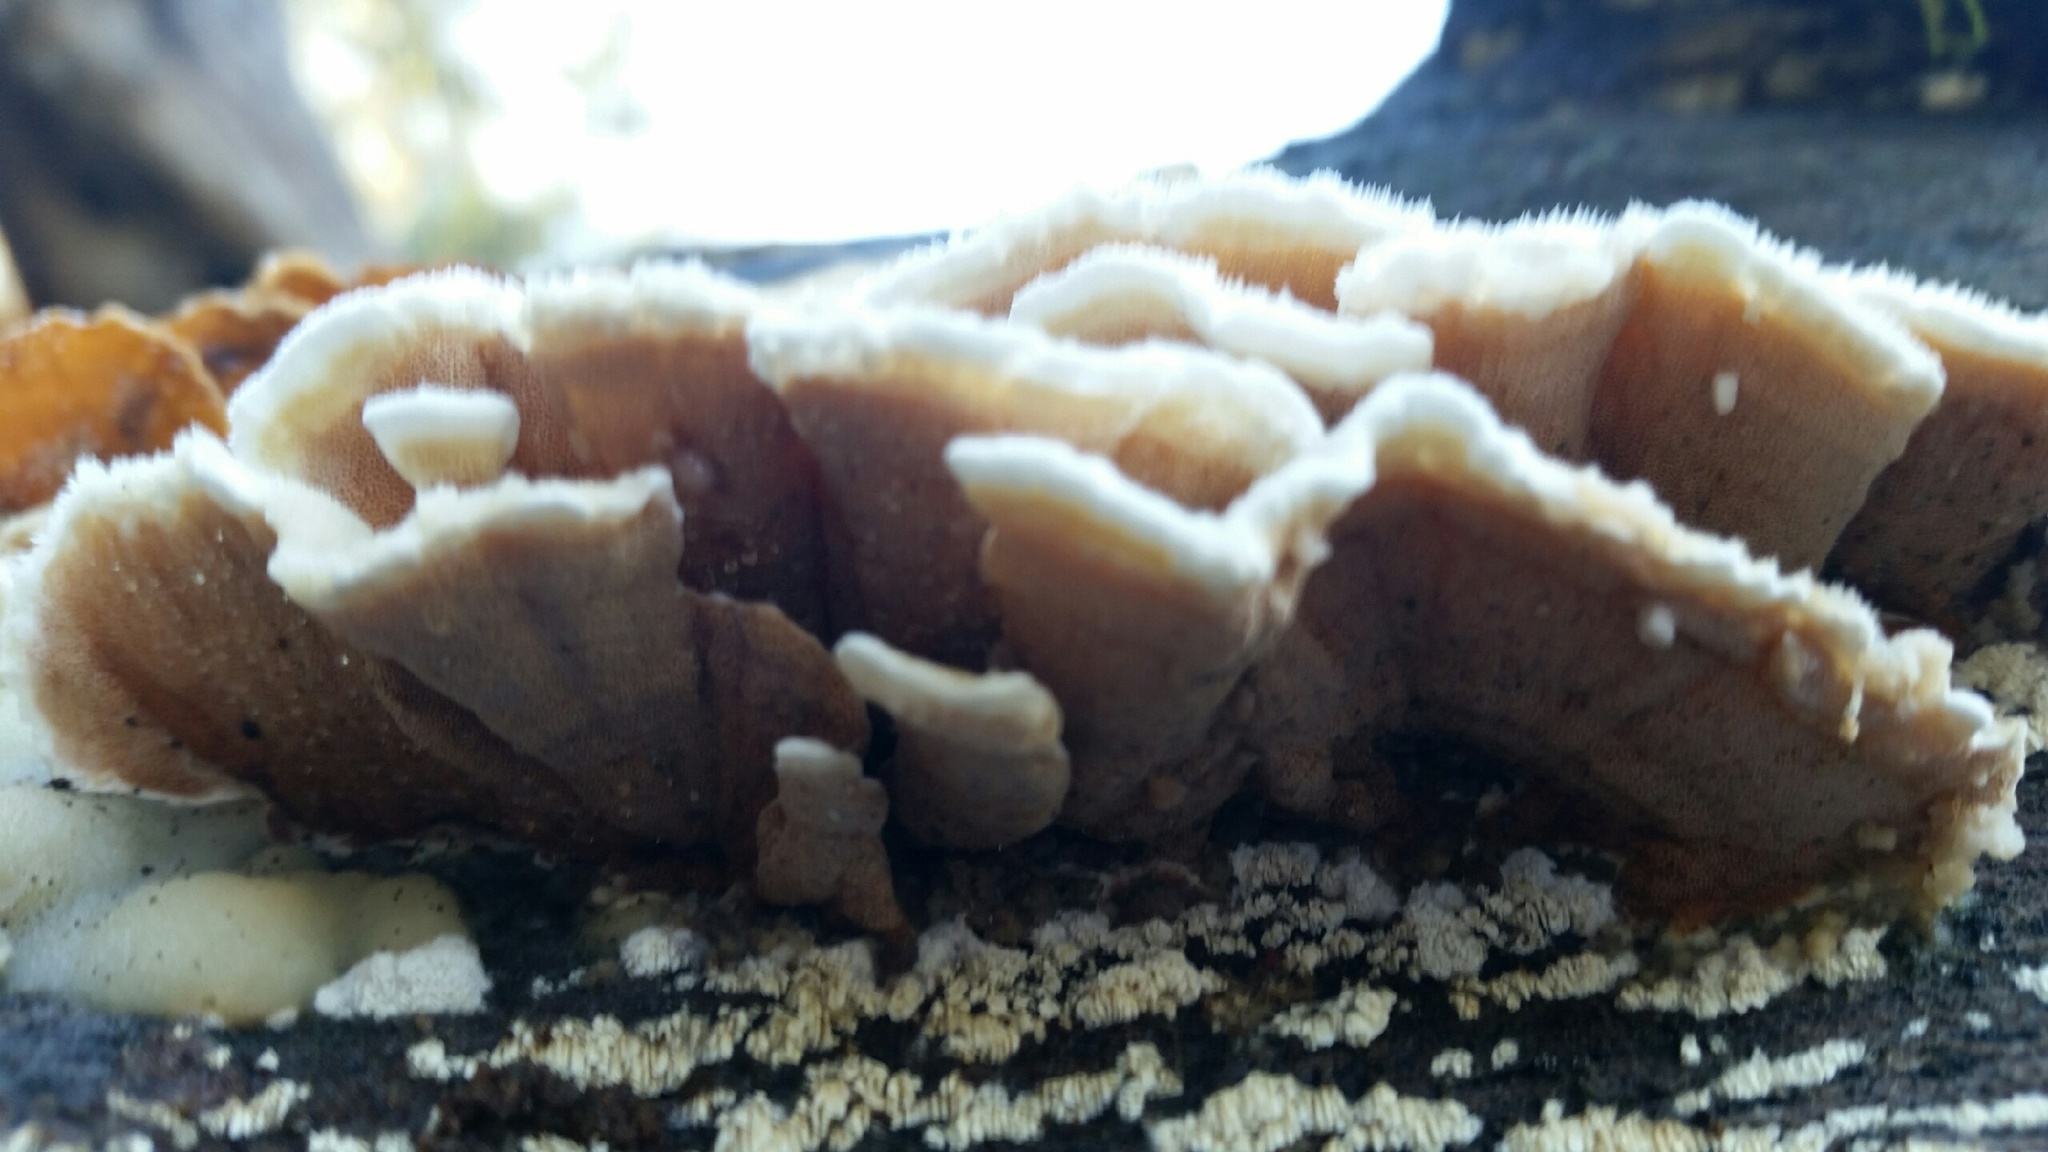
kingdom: Fungi
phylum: Basidiomycota
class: Agaricomycetes
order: Polyporales
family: Irpicaceae
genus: Vitreoporus
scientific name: Vitreoporus dichrous
